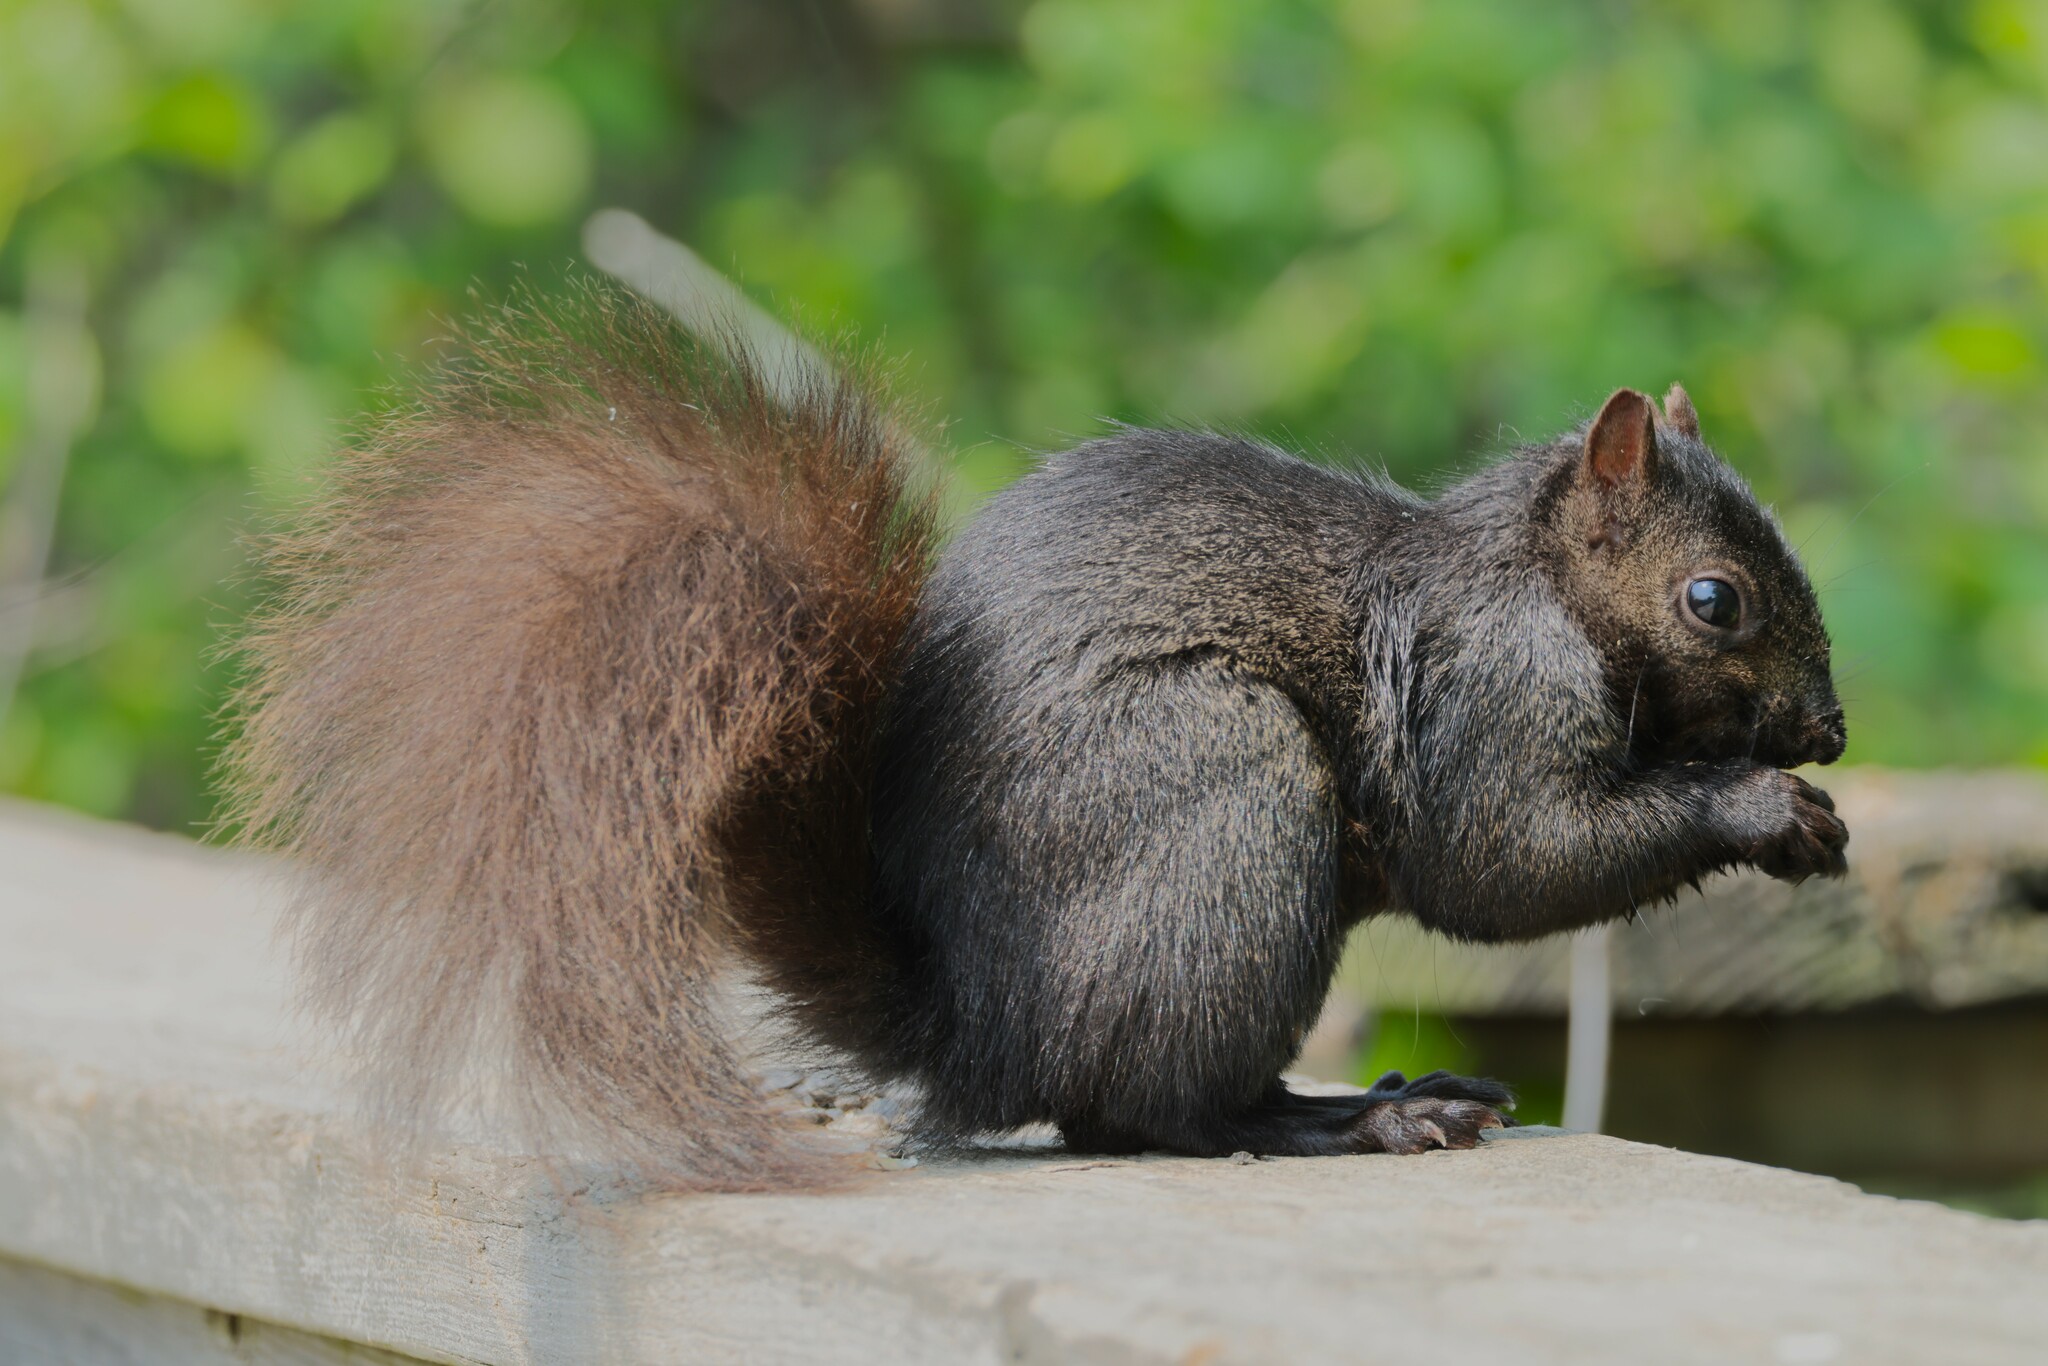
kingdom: Animalia
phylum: Chordata
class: Mammalia
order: Rodentia
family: Sciuridae
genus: Sciurus
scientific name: Sciurus carolinensis
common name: Eastern gray squirrel
